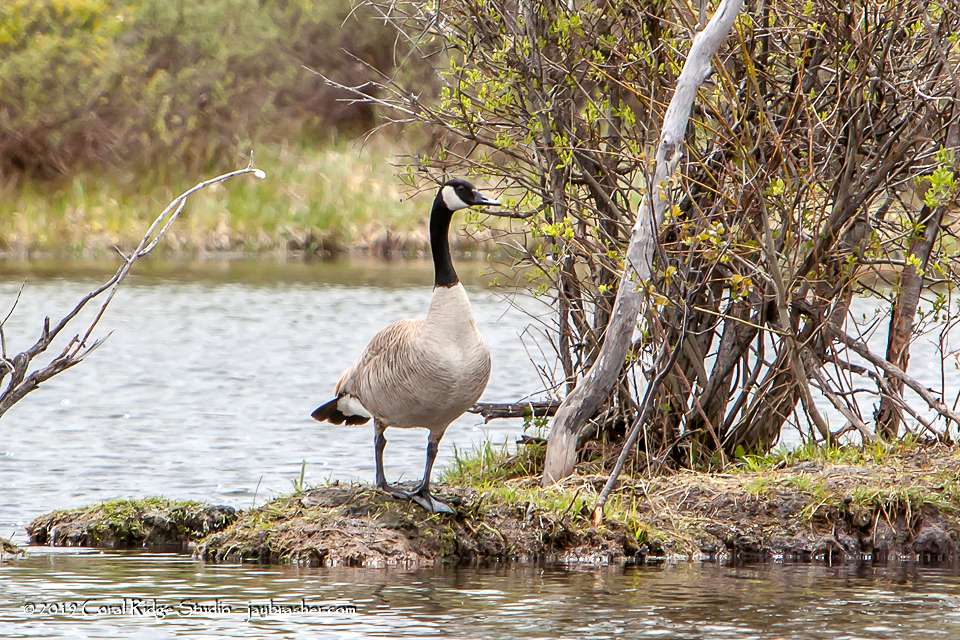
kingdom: Animalia
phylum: Chordata
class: Aves
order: Anseriformes
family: Anatidae
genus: Branta
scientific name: Branta canadensis
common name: Canada goose
